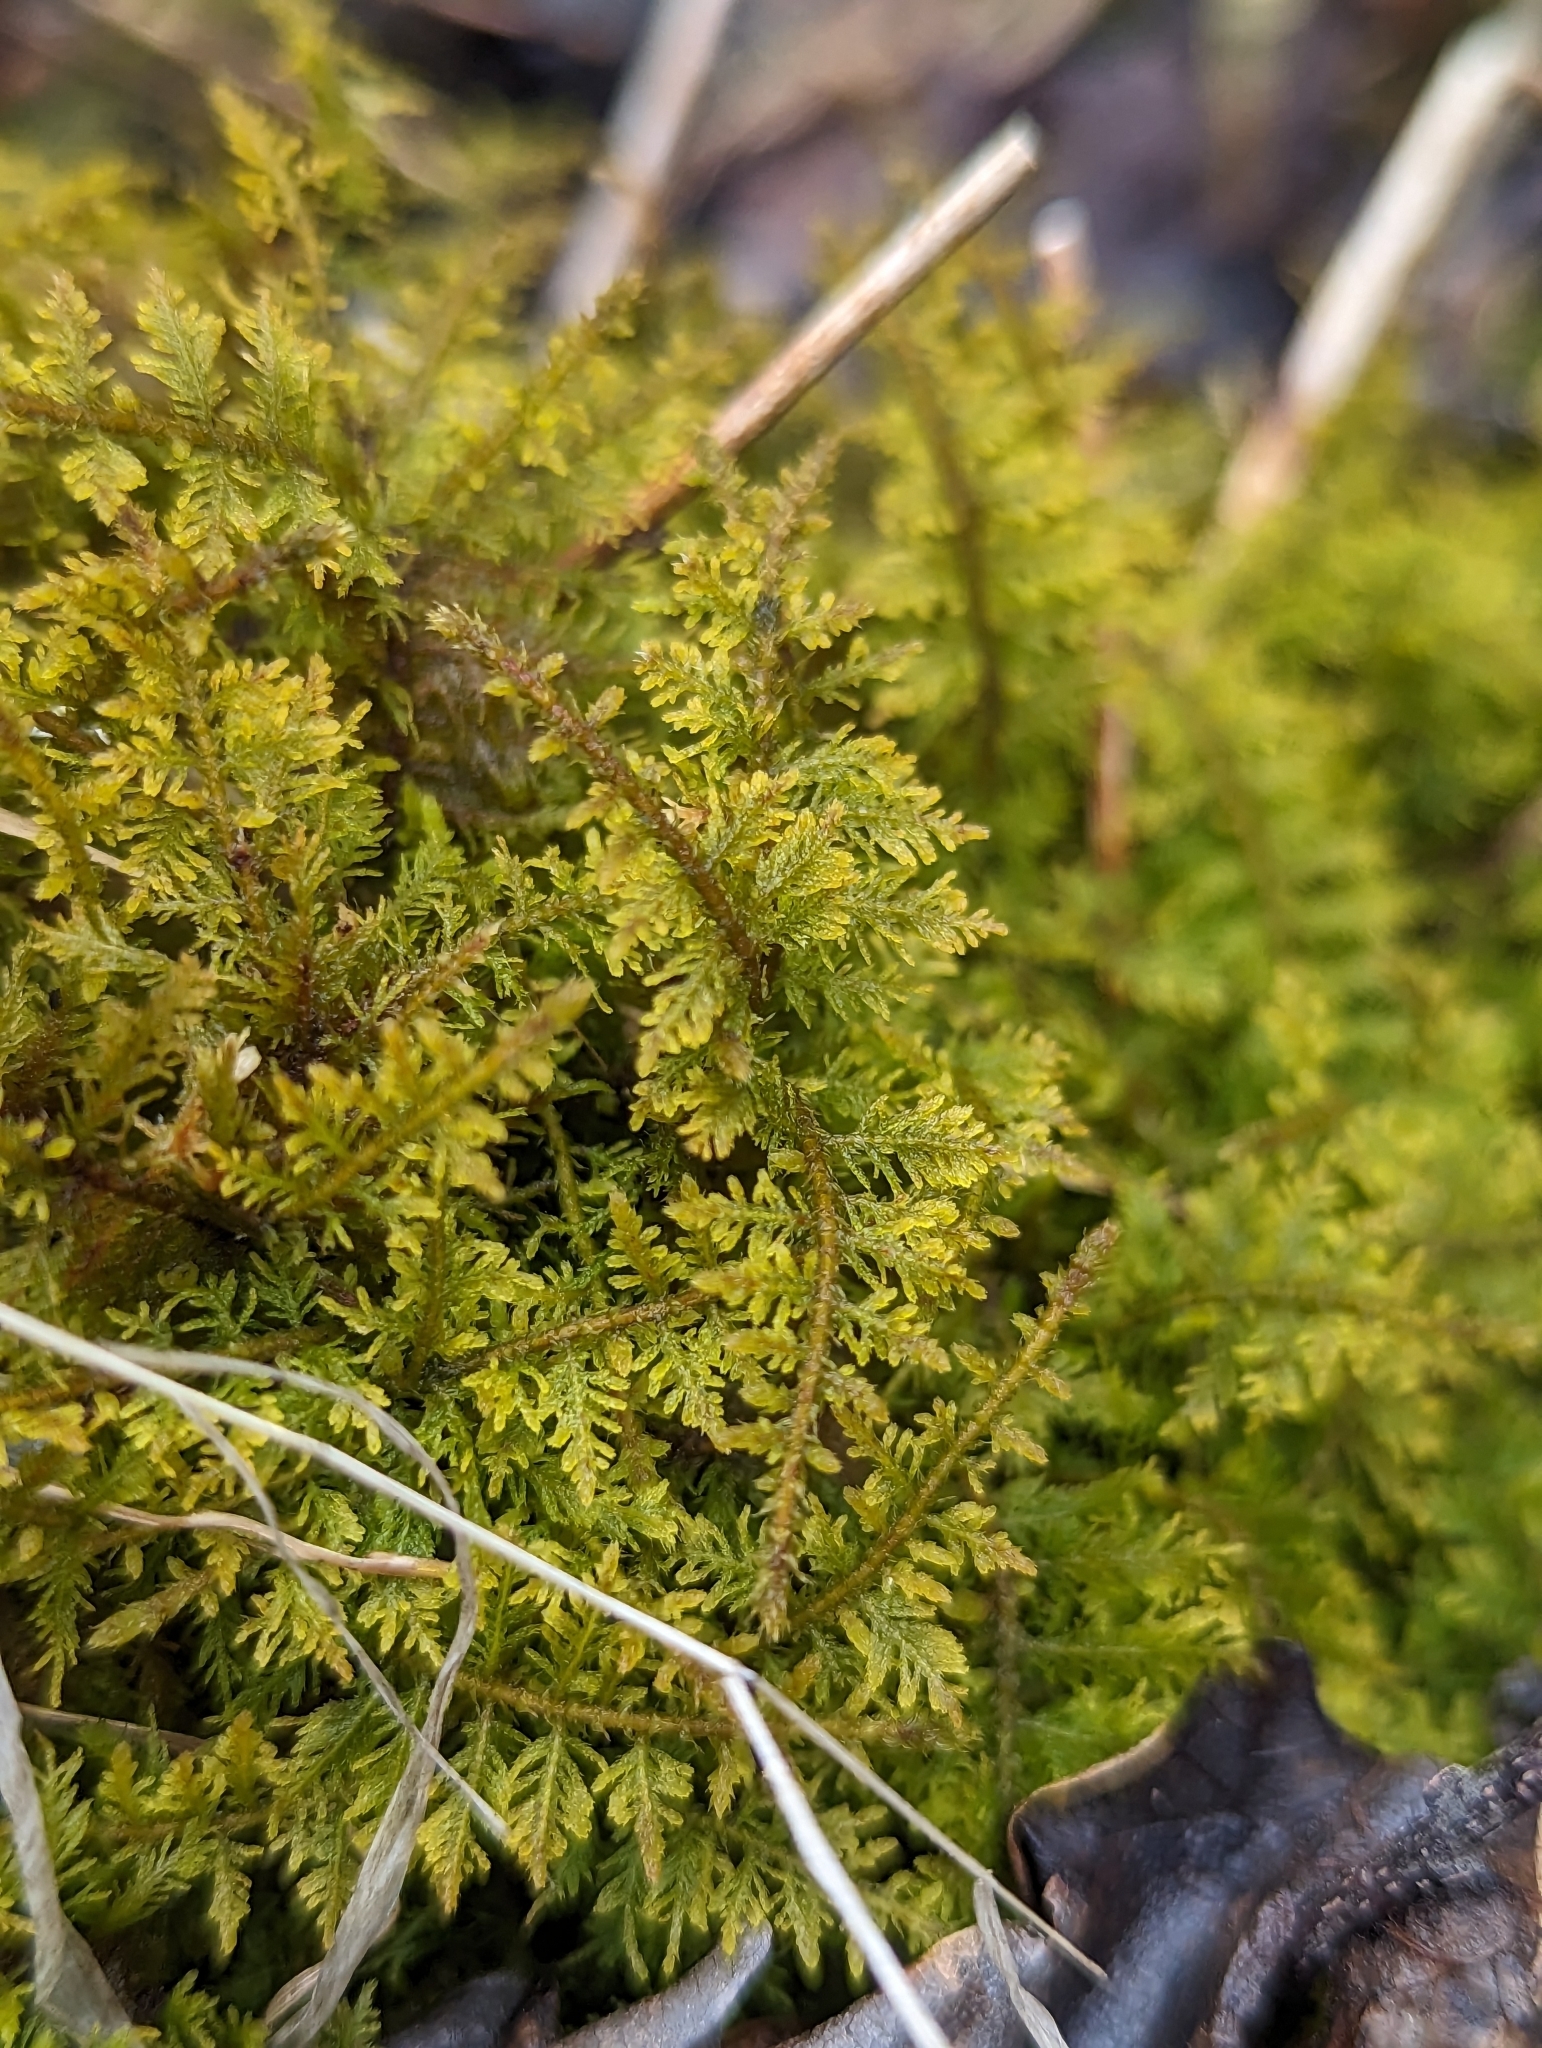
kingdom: Plantae
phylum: Bryophyta
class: Bryopsida
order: Hypnales
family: Thuidiaceae
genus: Thuidium
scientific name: Thuidium delicatulum
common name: Delicate fern moss
